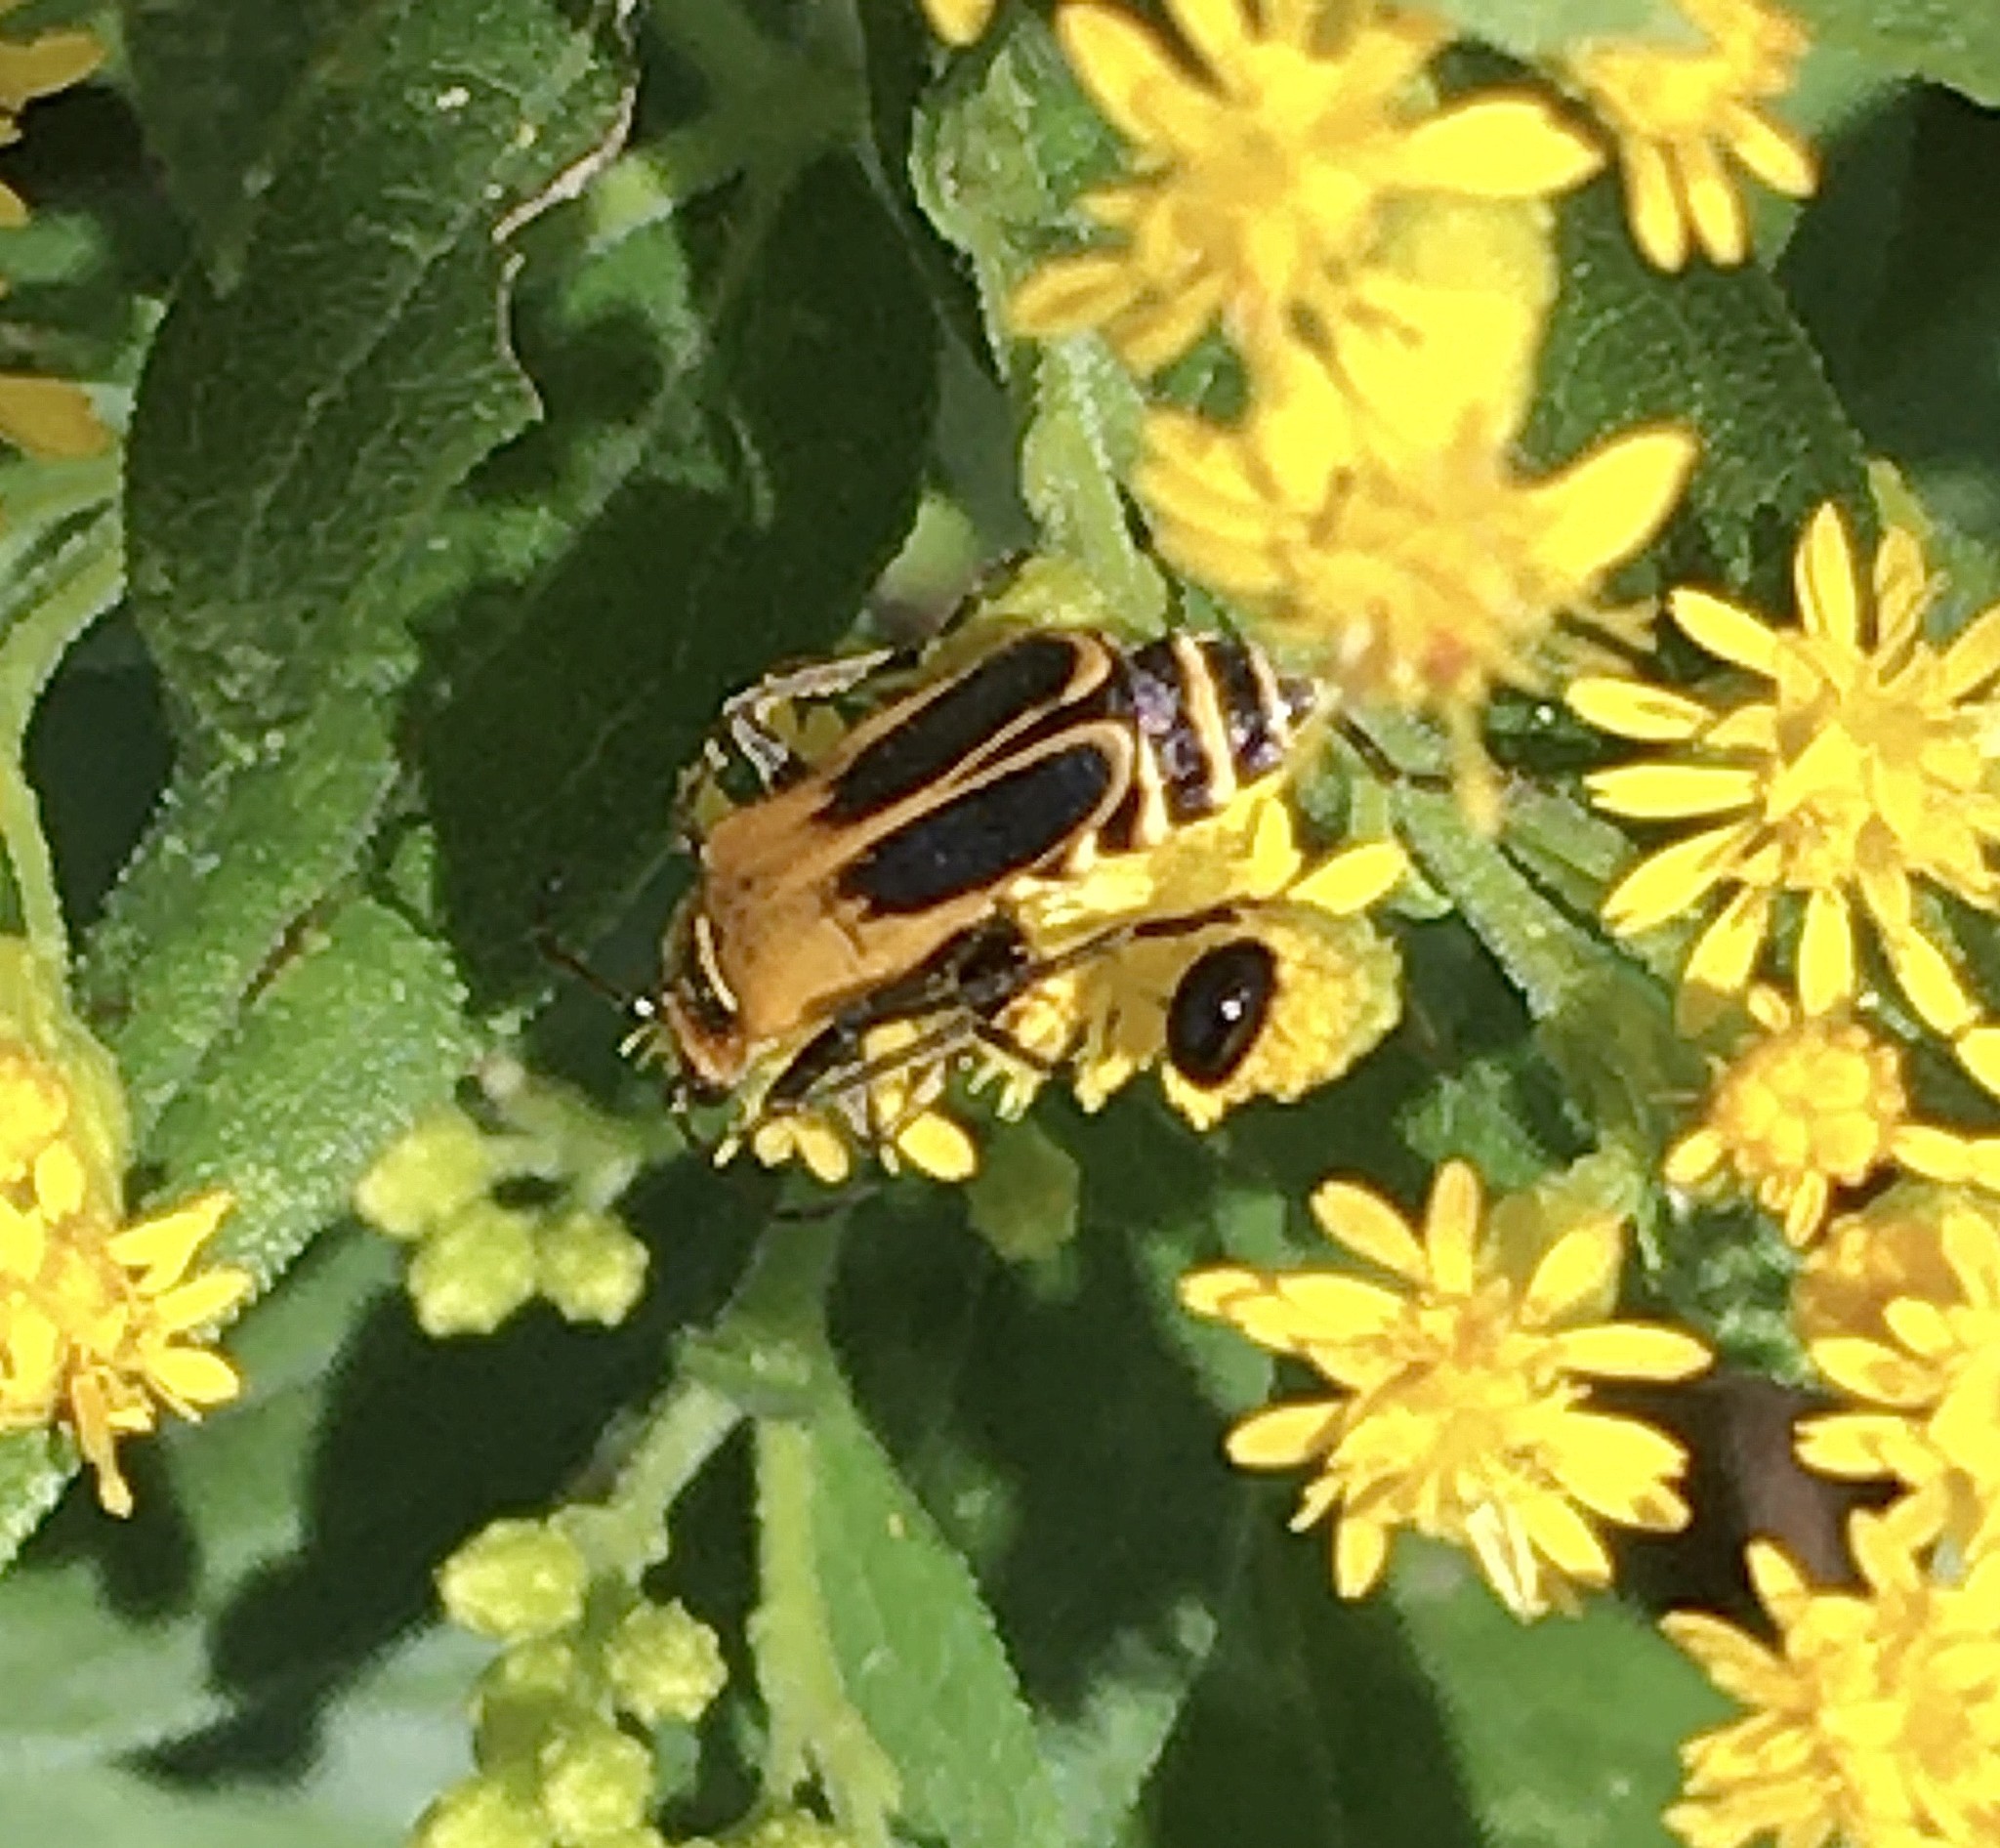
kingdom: Animalia
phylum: Arthropoda
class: Insecta
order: Coleoptera
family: Cantharidae
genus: Chauliognathus
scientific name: Chauliognathus pensylvanicus
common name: Goldenrod soldier beetle
